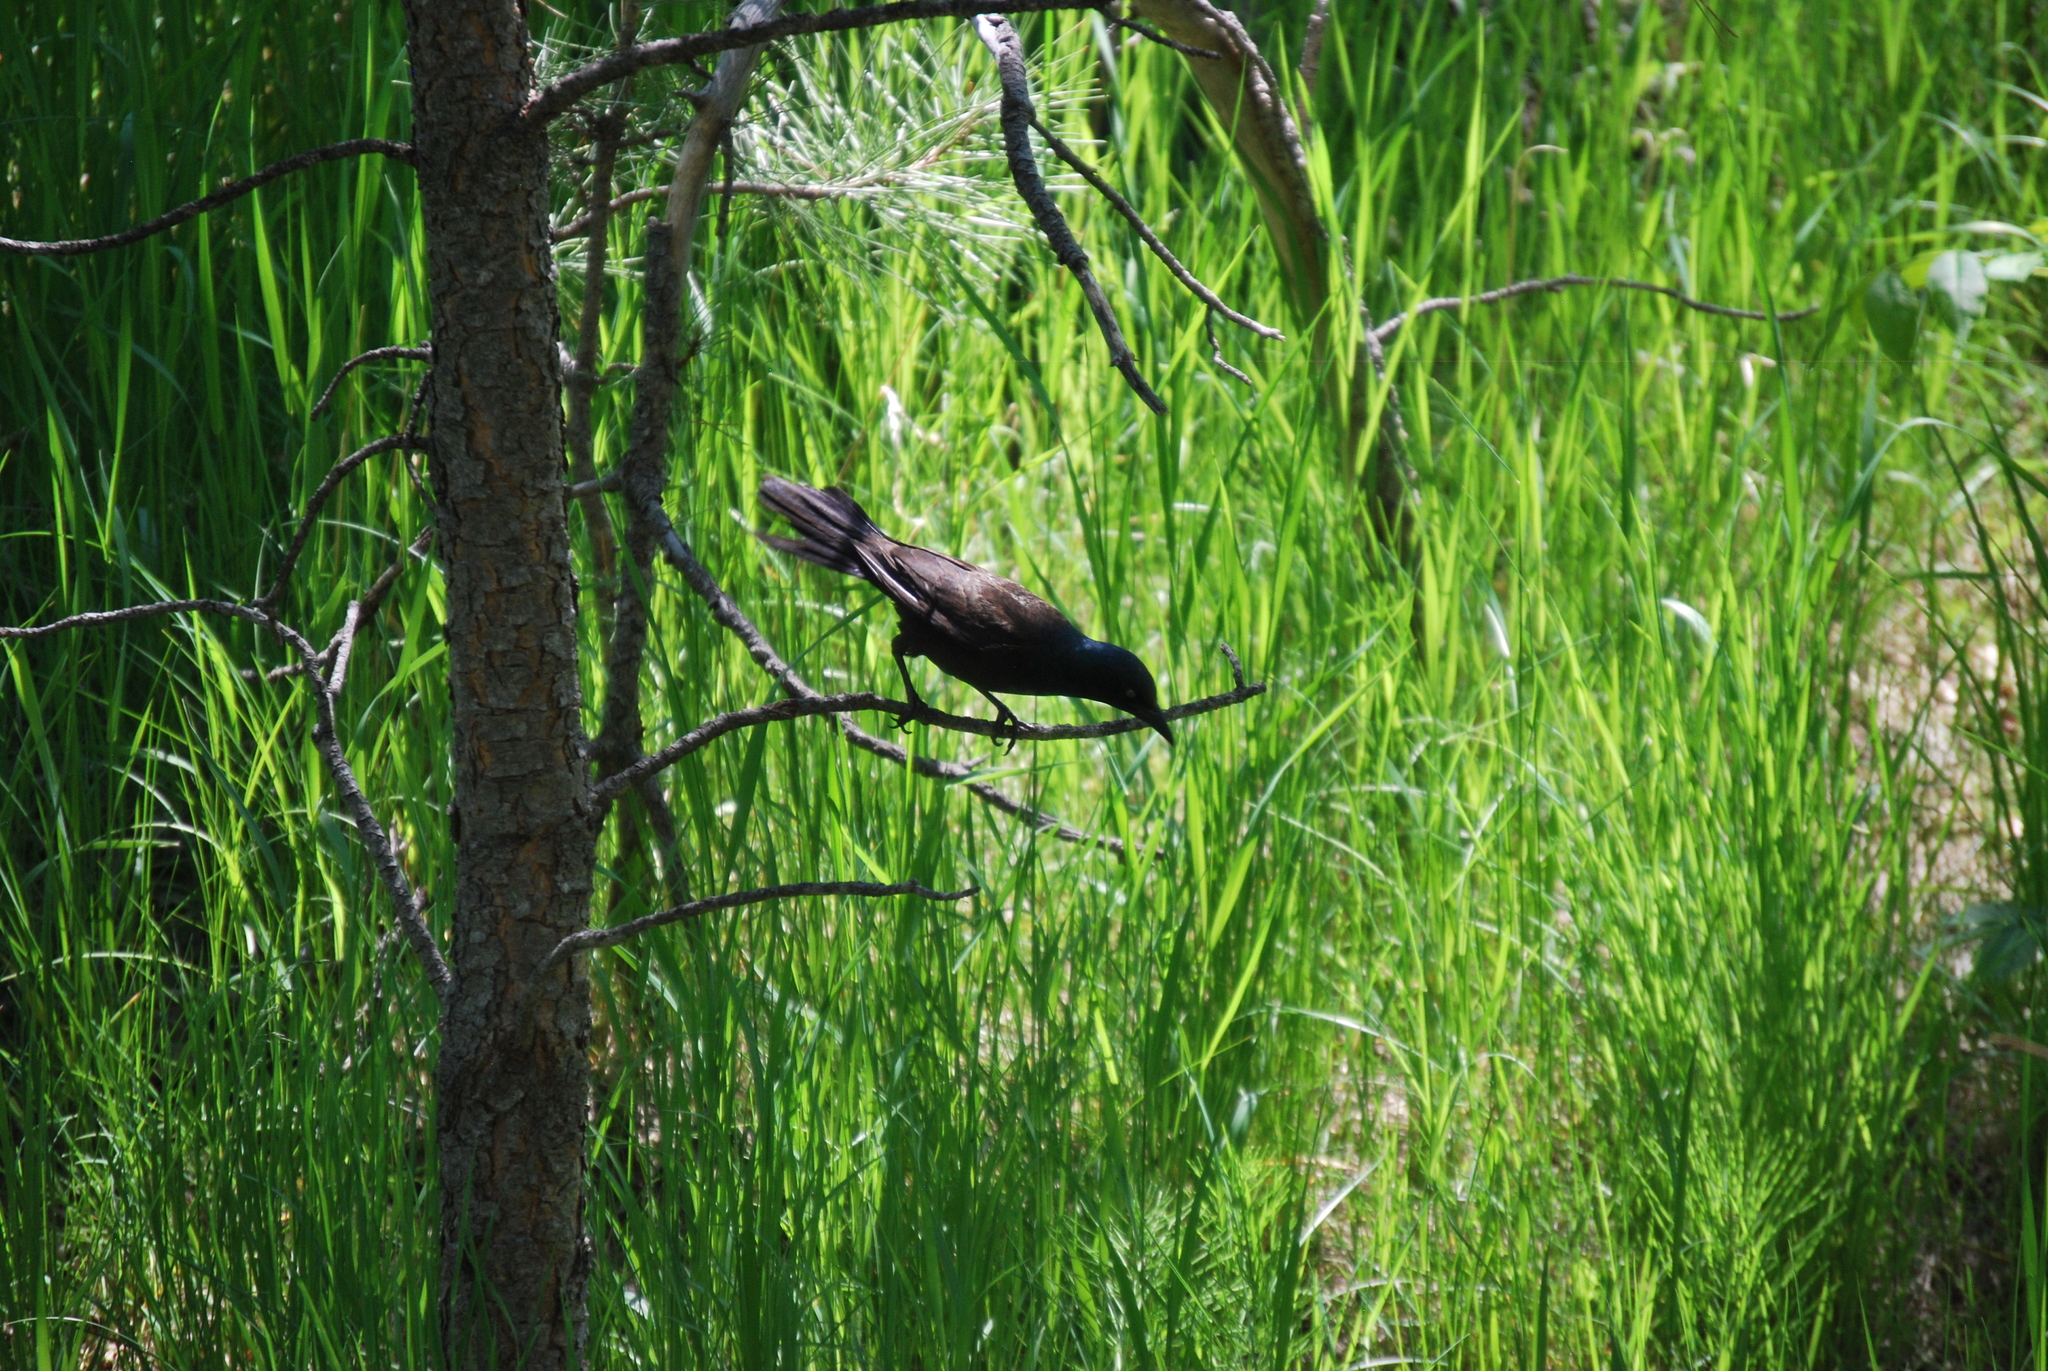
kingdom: Animalia
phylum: Chordata
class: Aves
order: Passeriformes
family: Icteridae
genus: Quiscalus
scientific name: Quiscalus quiscula
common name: Common grackle
